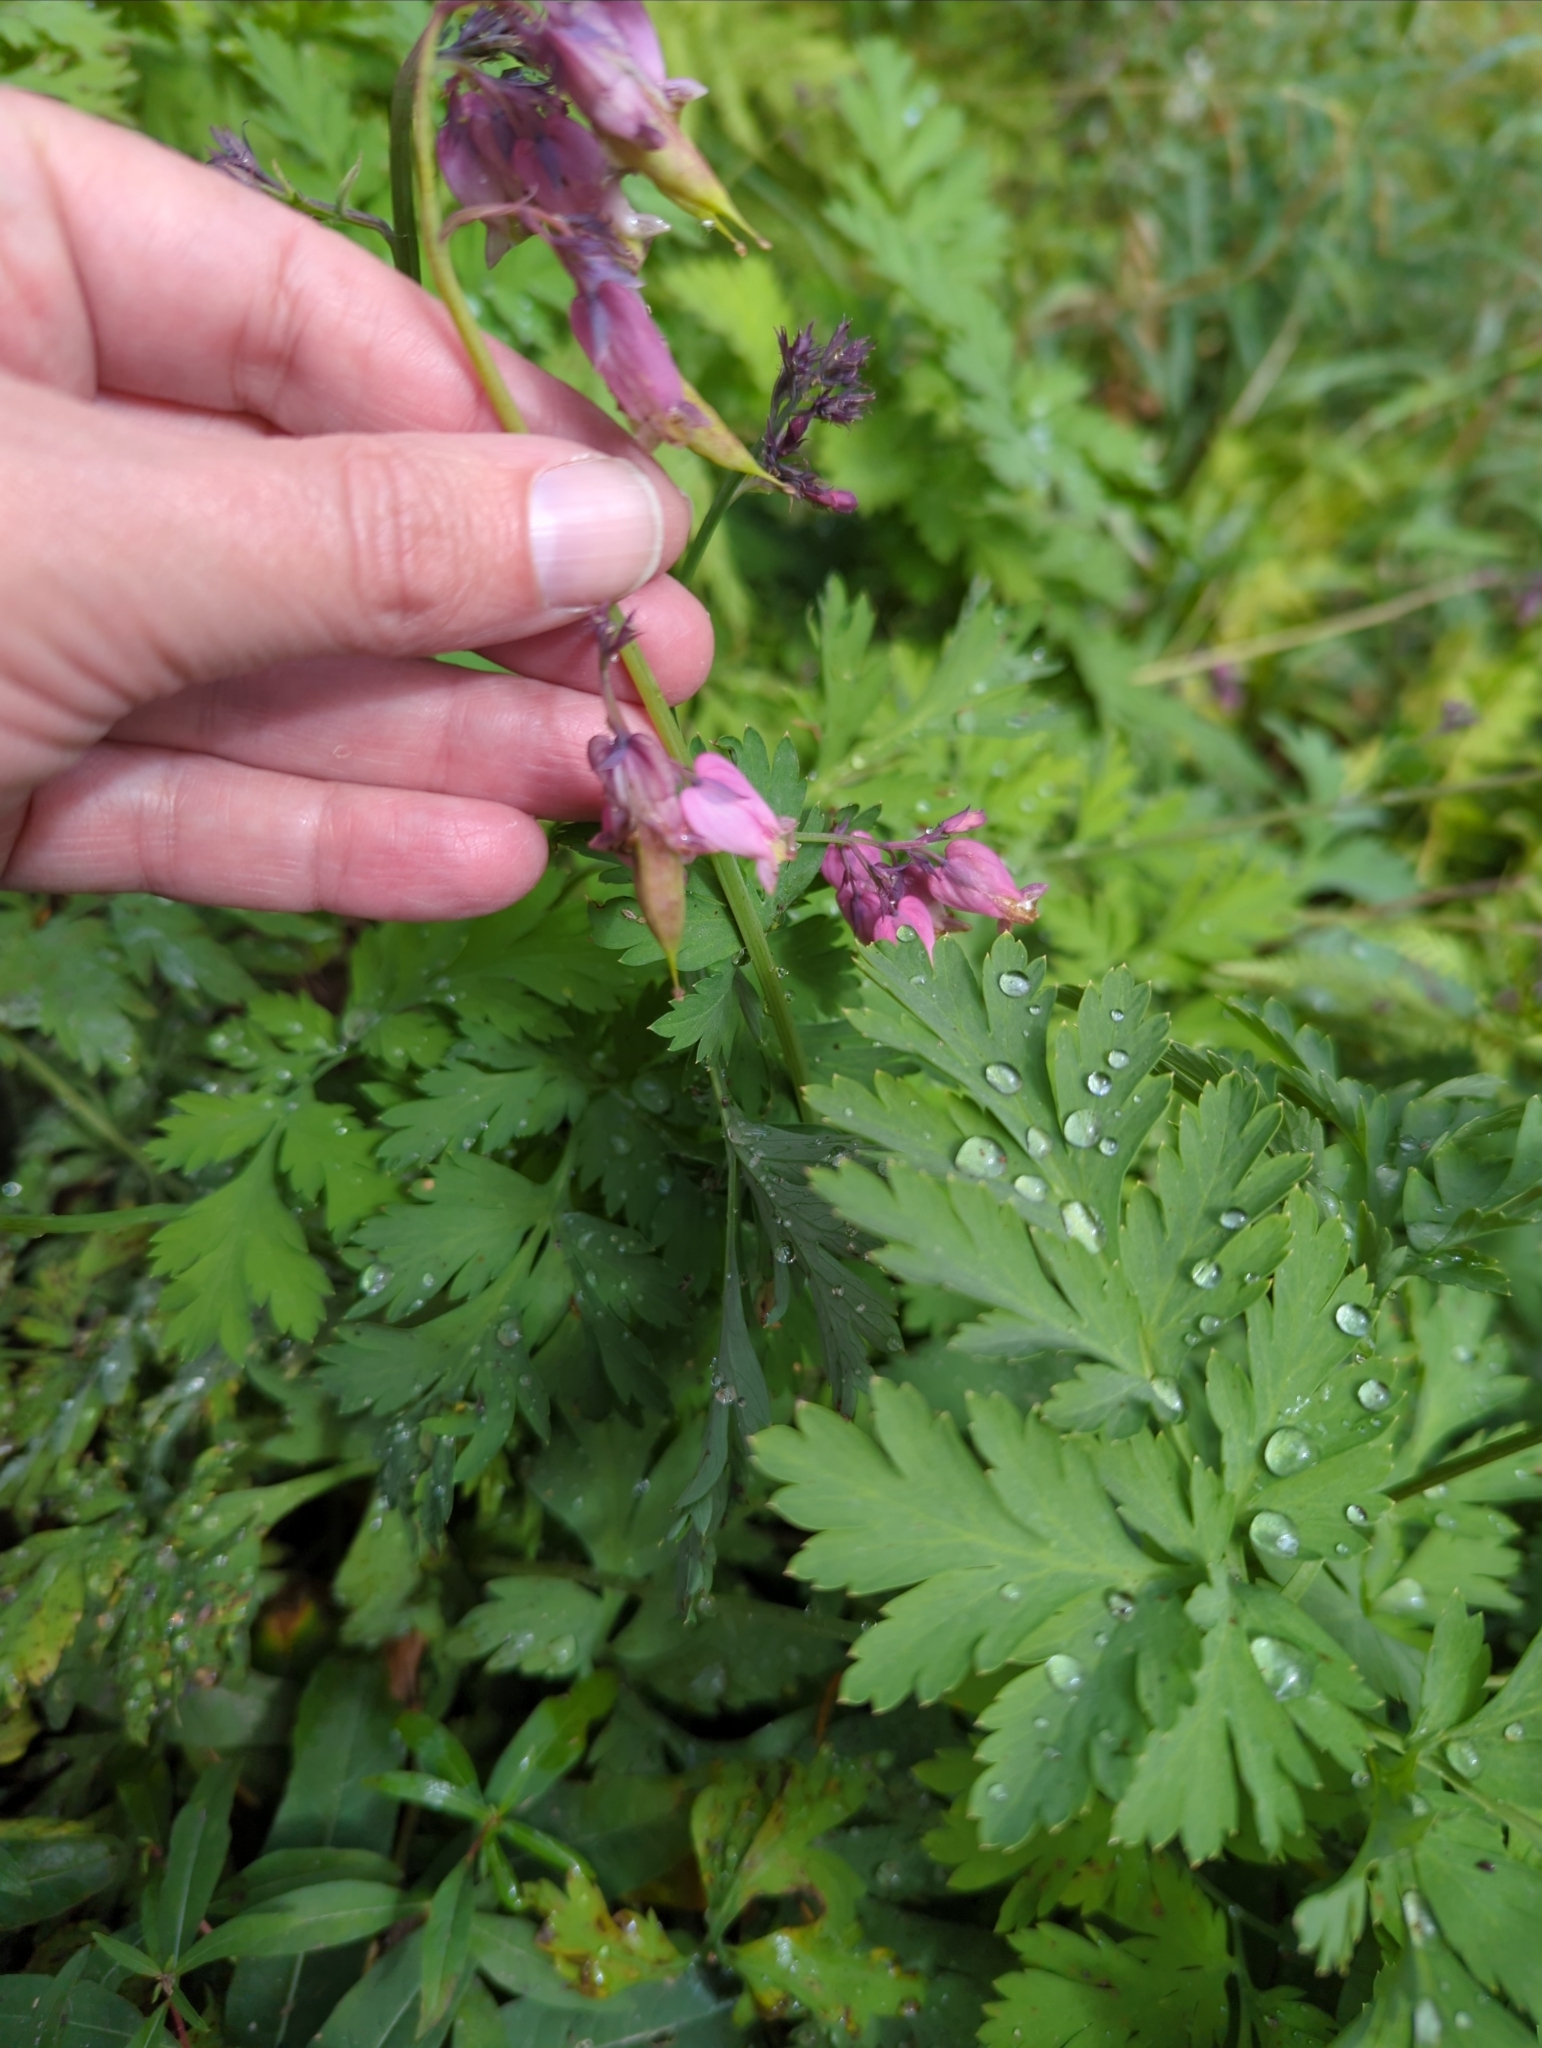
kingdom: Plantae
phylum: Tracheophyta
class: Magnoliopsida
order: Ranunculales
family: Papaveraceae
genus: Dicentra
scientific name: Dicentra formosa
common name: Bleeding-heart
